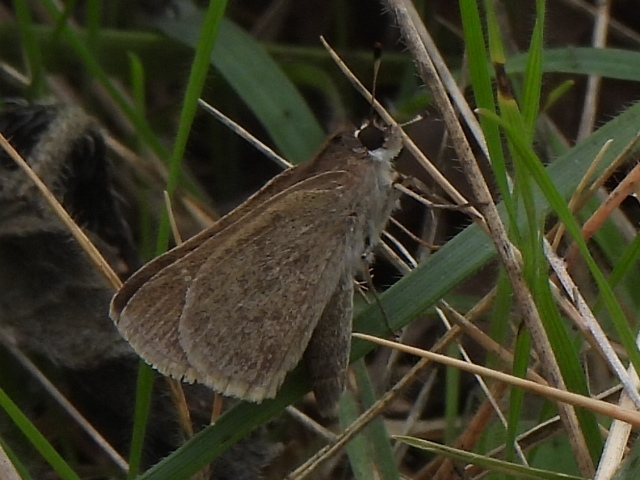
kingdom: Animalia
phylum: Arthropoda
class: Insecta
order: Lepidoptera
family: Hesperiidae
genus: Lerodea
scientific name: Lerodea eufala
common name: Eufala skipper
